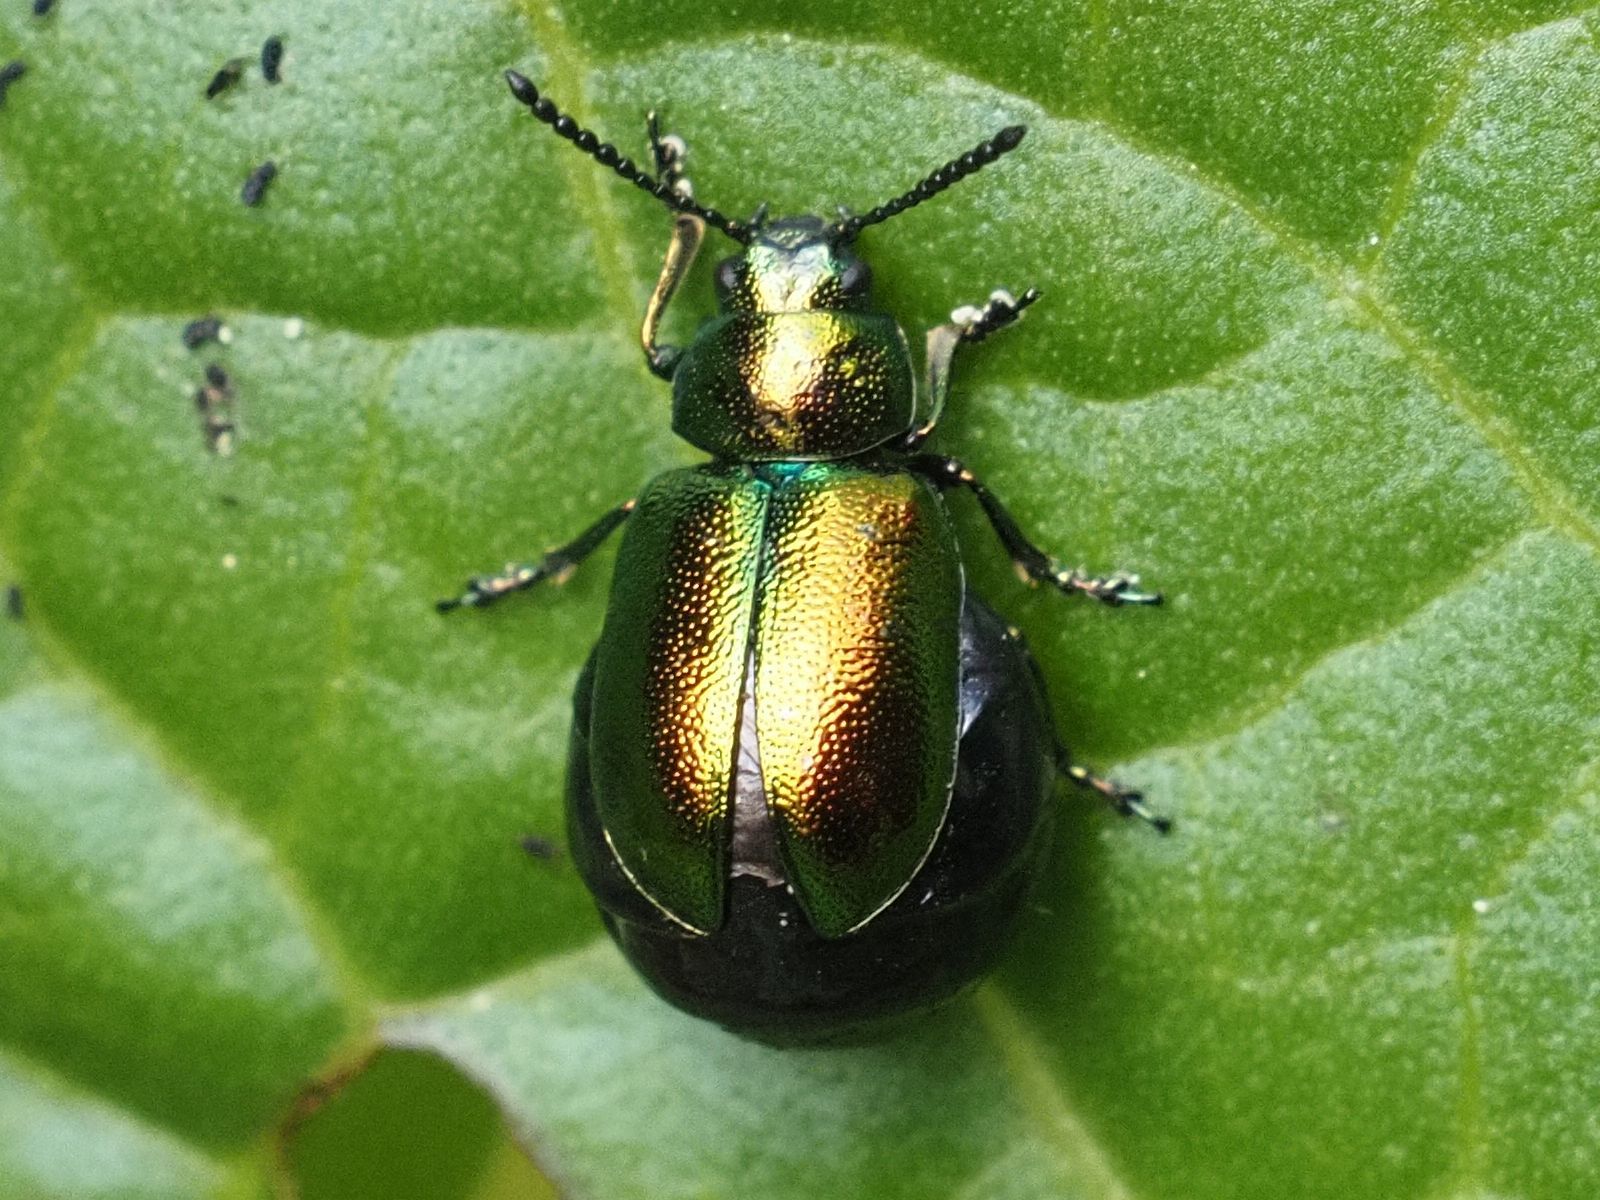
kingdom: Animalia
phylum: Arthropoda
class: Insecta
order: Coleoptera
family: Chrysomelidae
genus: Gastrophysa
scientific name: Gastrophysa viridula
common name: Green dock beetle
